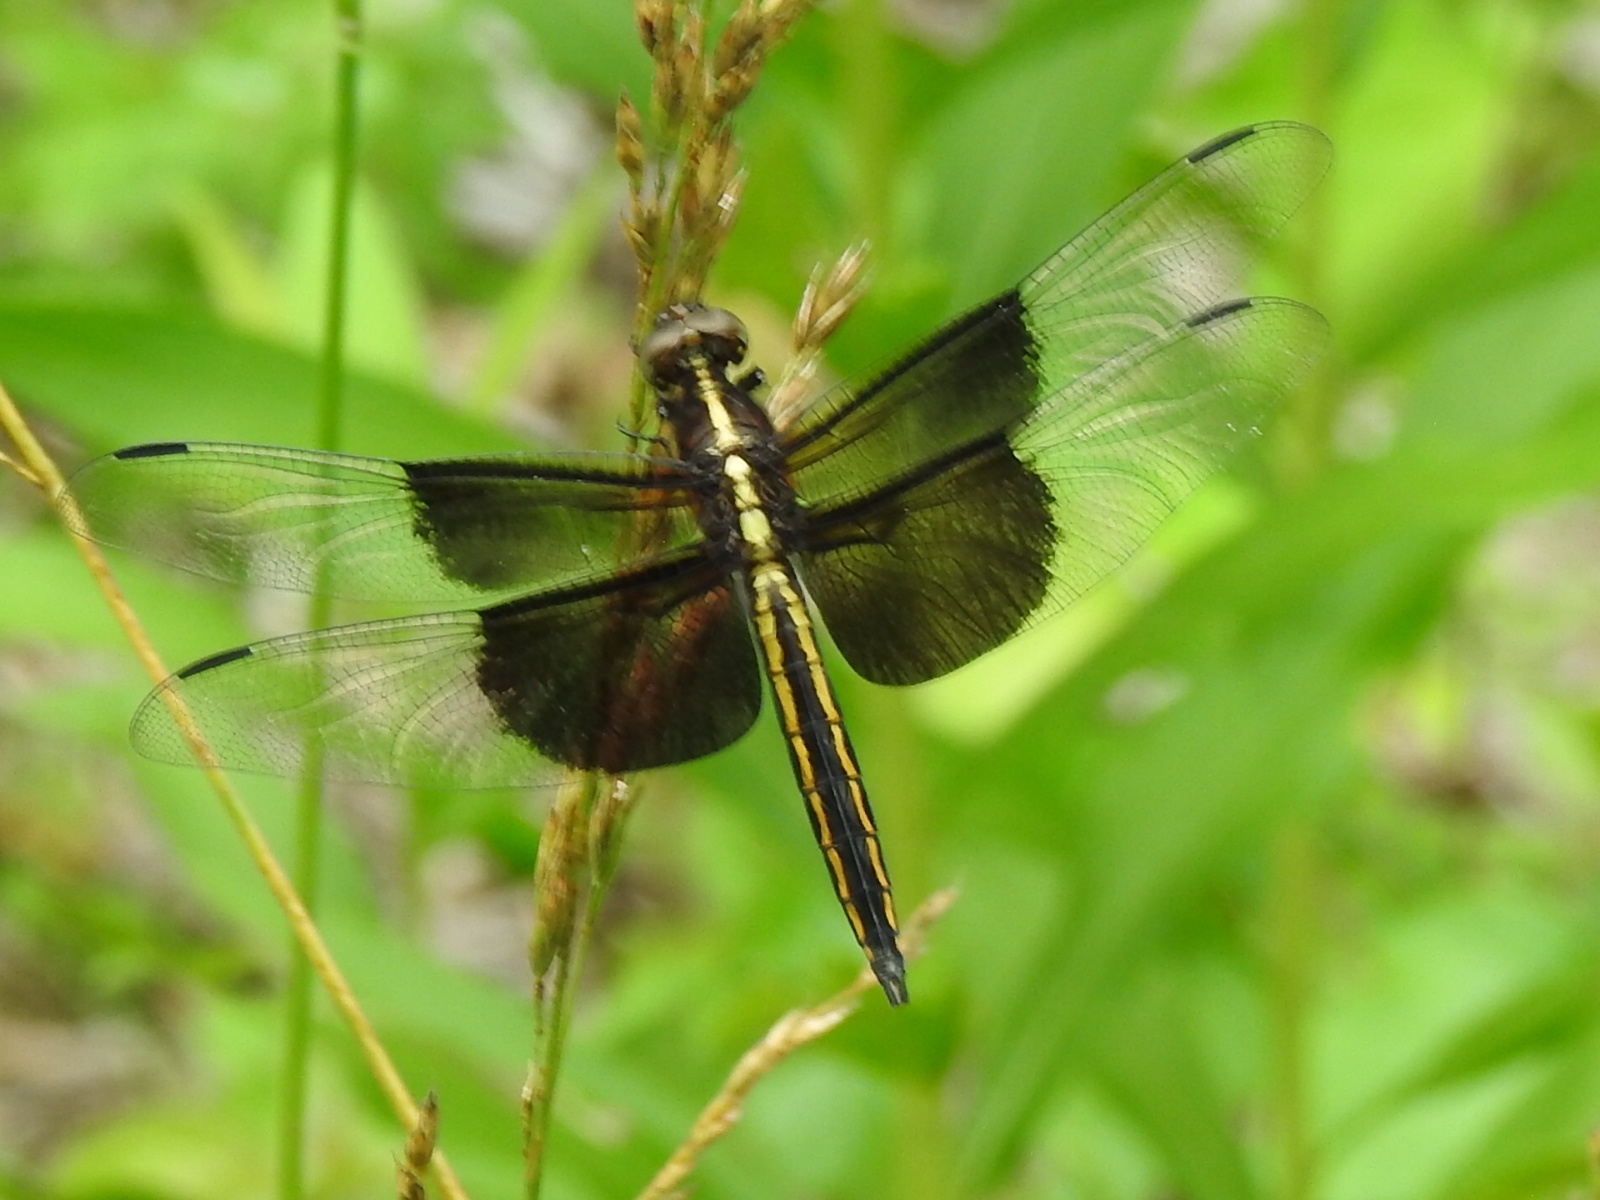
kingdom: Animalia
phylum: Arthropoda
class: Insecta
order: Odonata
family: Libellulidae
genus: Libellula
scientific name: Libellula luctuosa
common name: Widow skimmer
